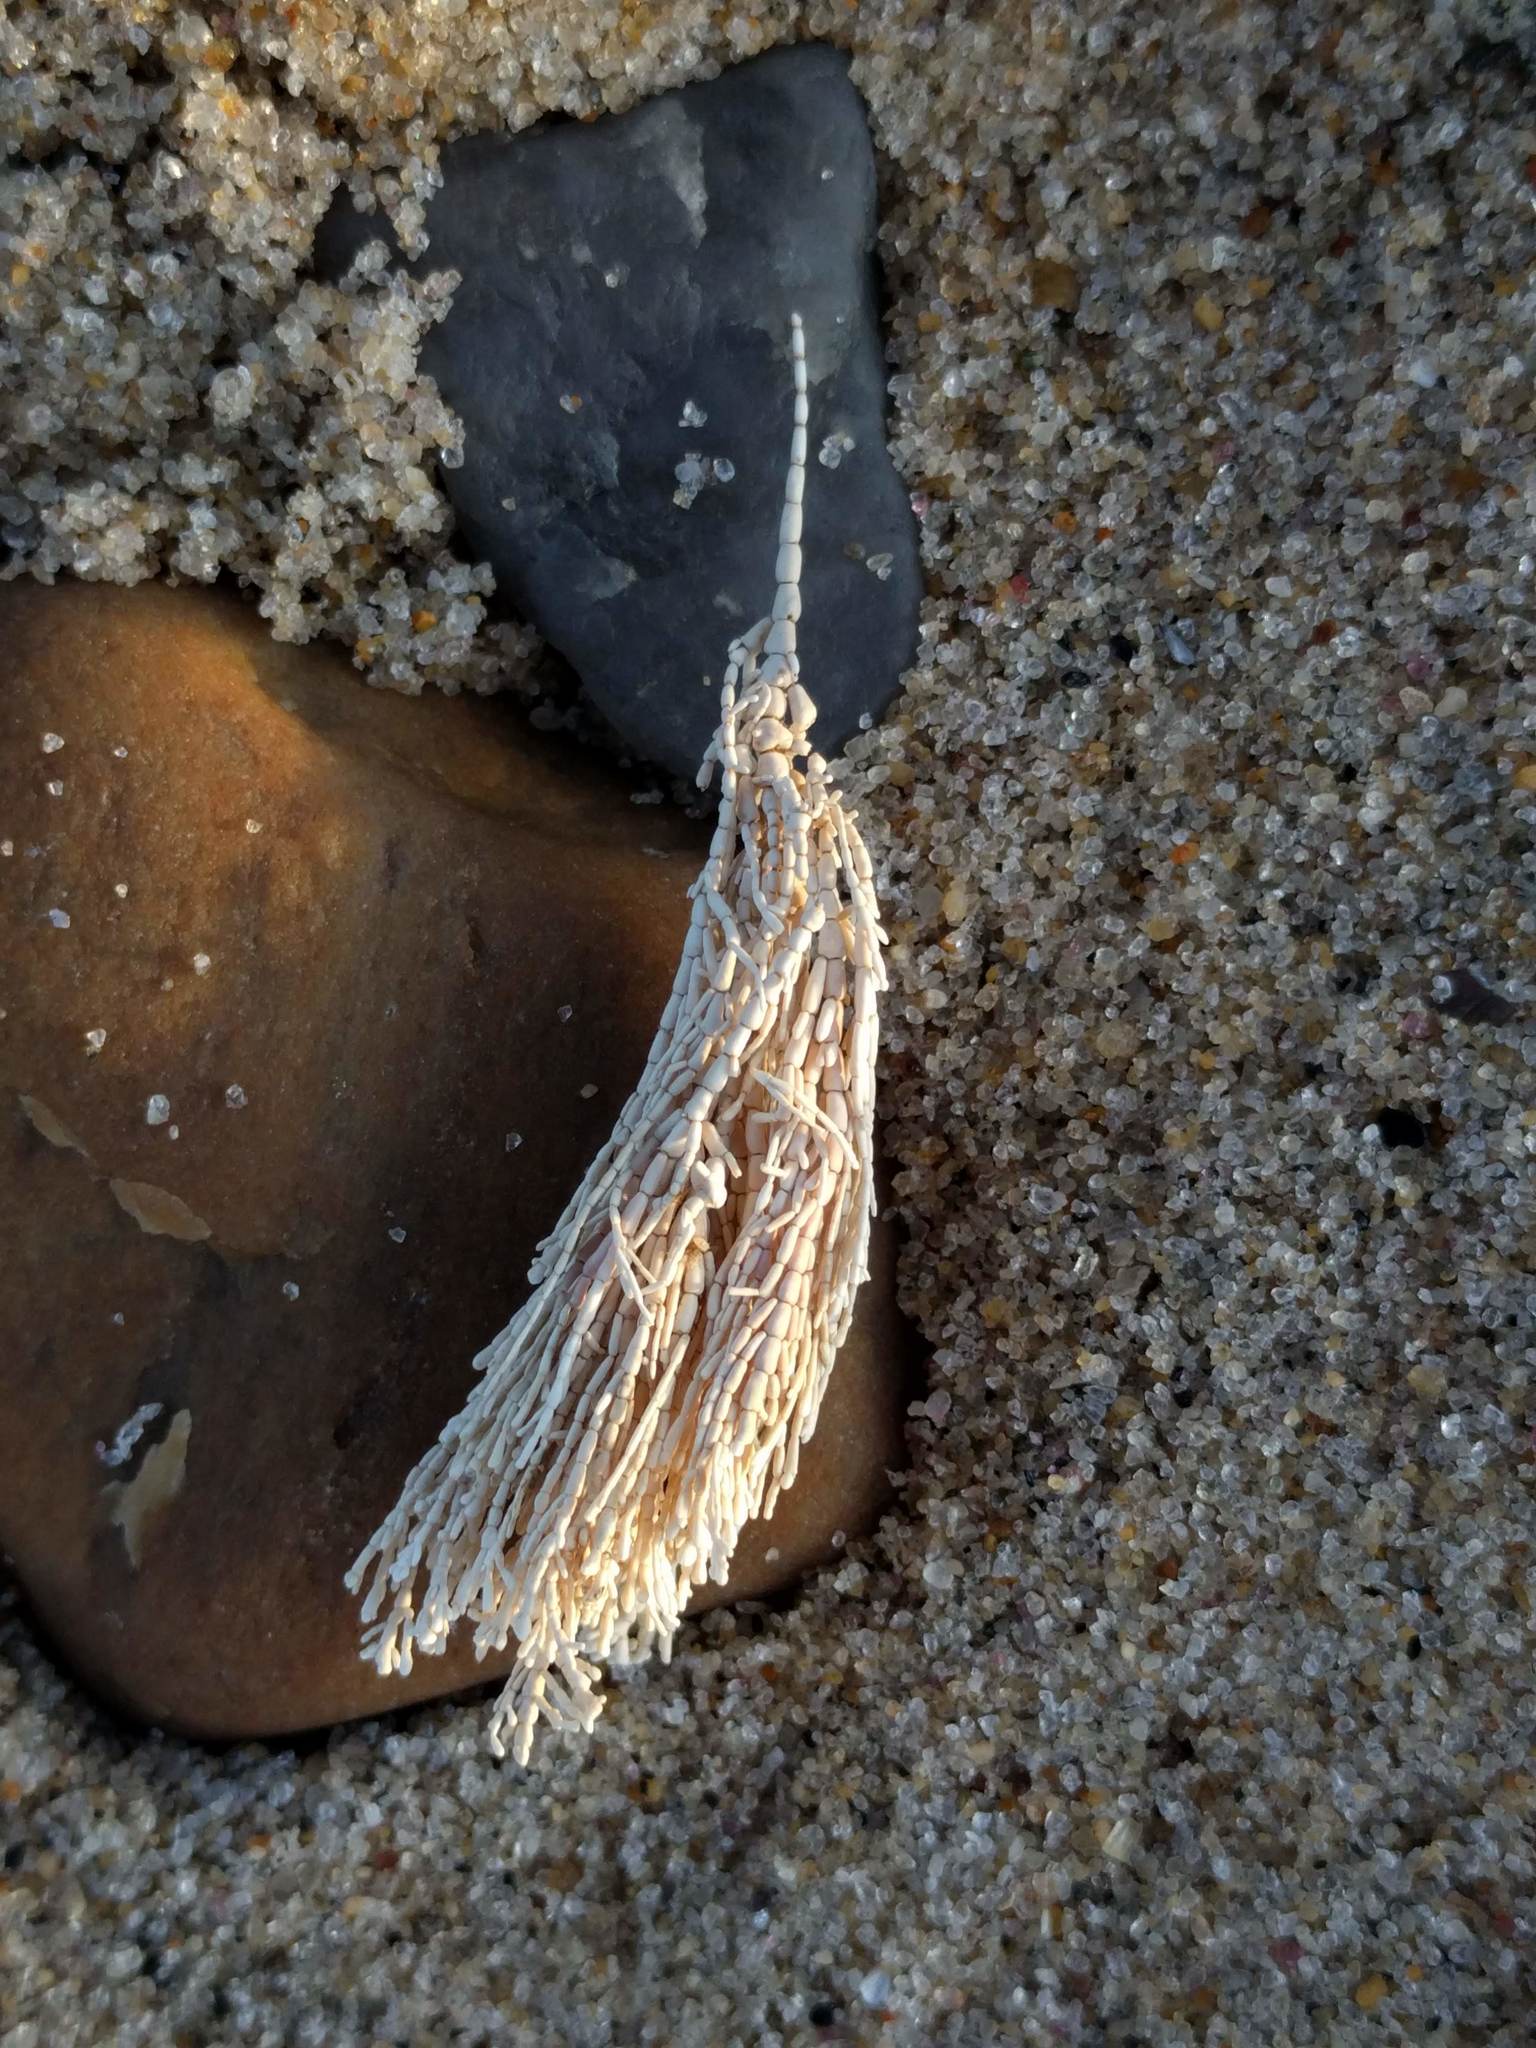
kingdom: Plantae
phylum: Rhodophyta
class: Florideophyceae
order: Corallinales
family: Corallinaceae
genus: Corallina
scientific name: Corallina officinalis
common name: Coral weed
